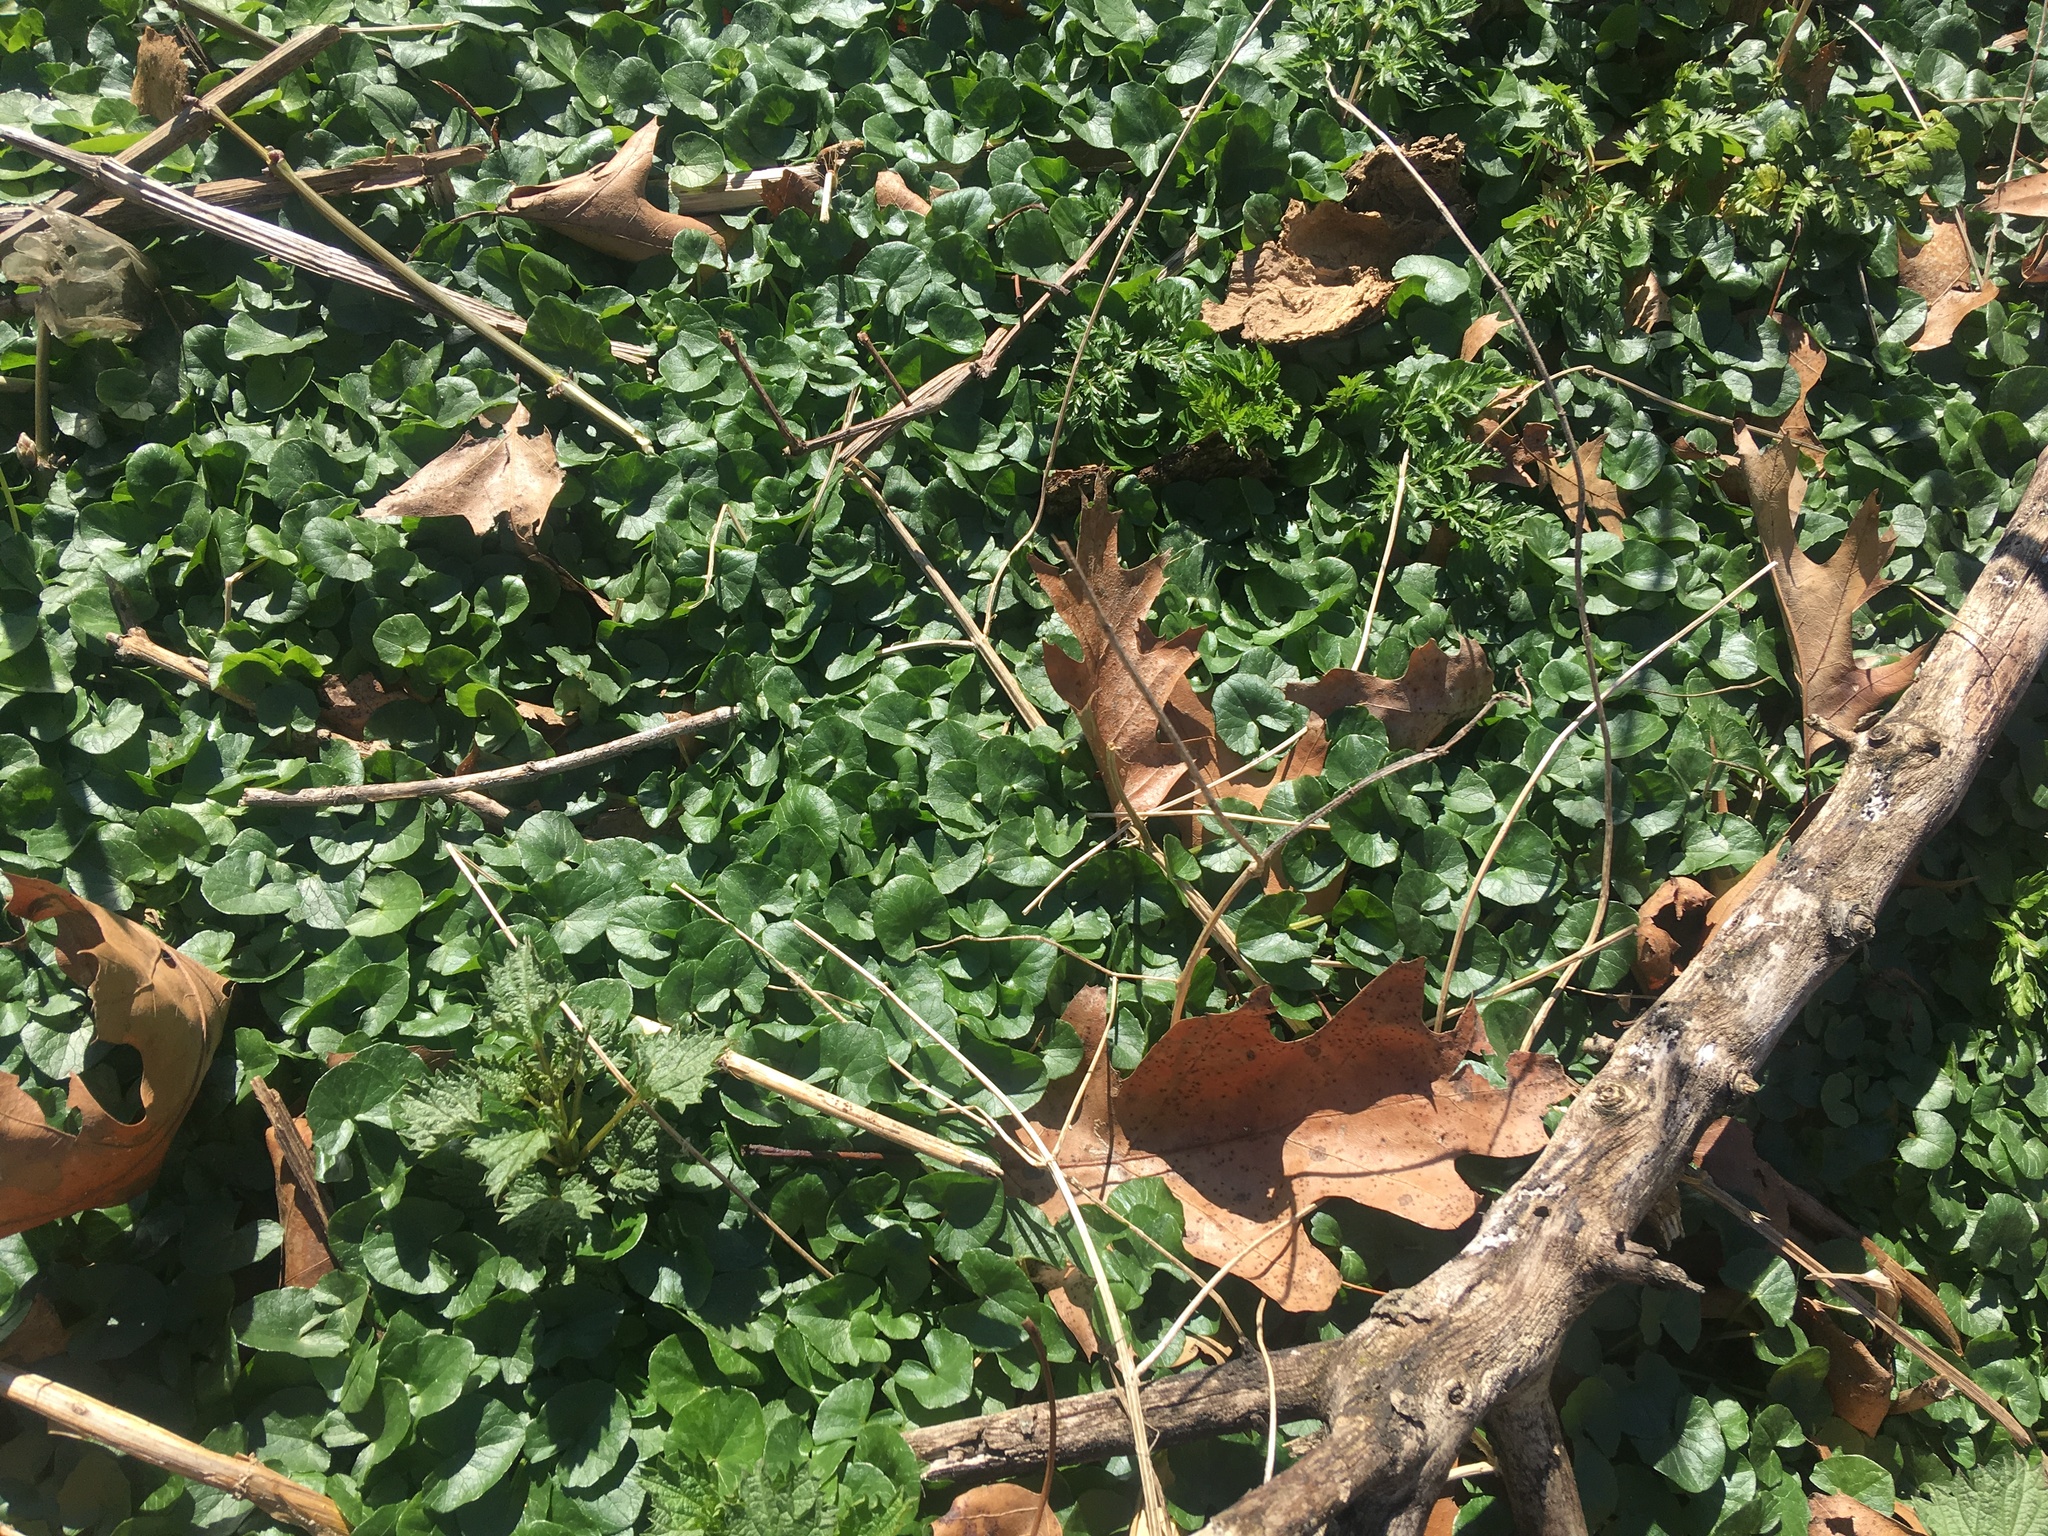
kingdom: Plantae
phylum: Tracheophyta
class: Magnoliopsida
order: Ranunculales
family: Ranunculaceae
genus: Ficaria
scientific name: Ficaria verna
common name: Lesser celandine
